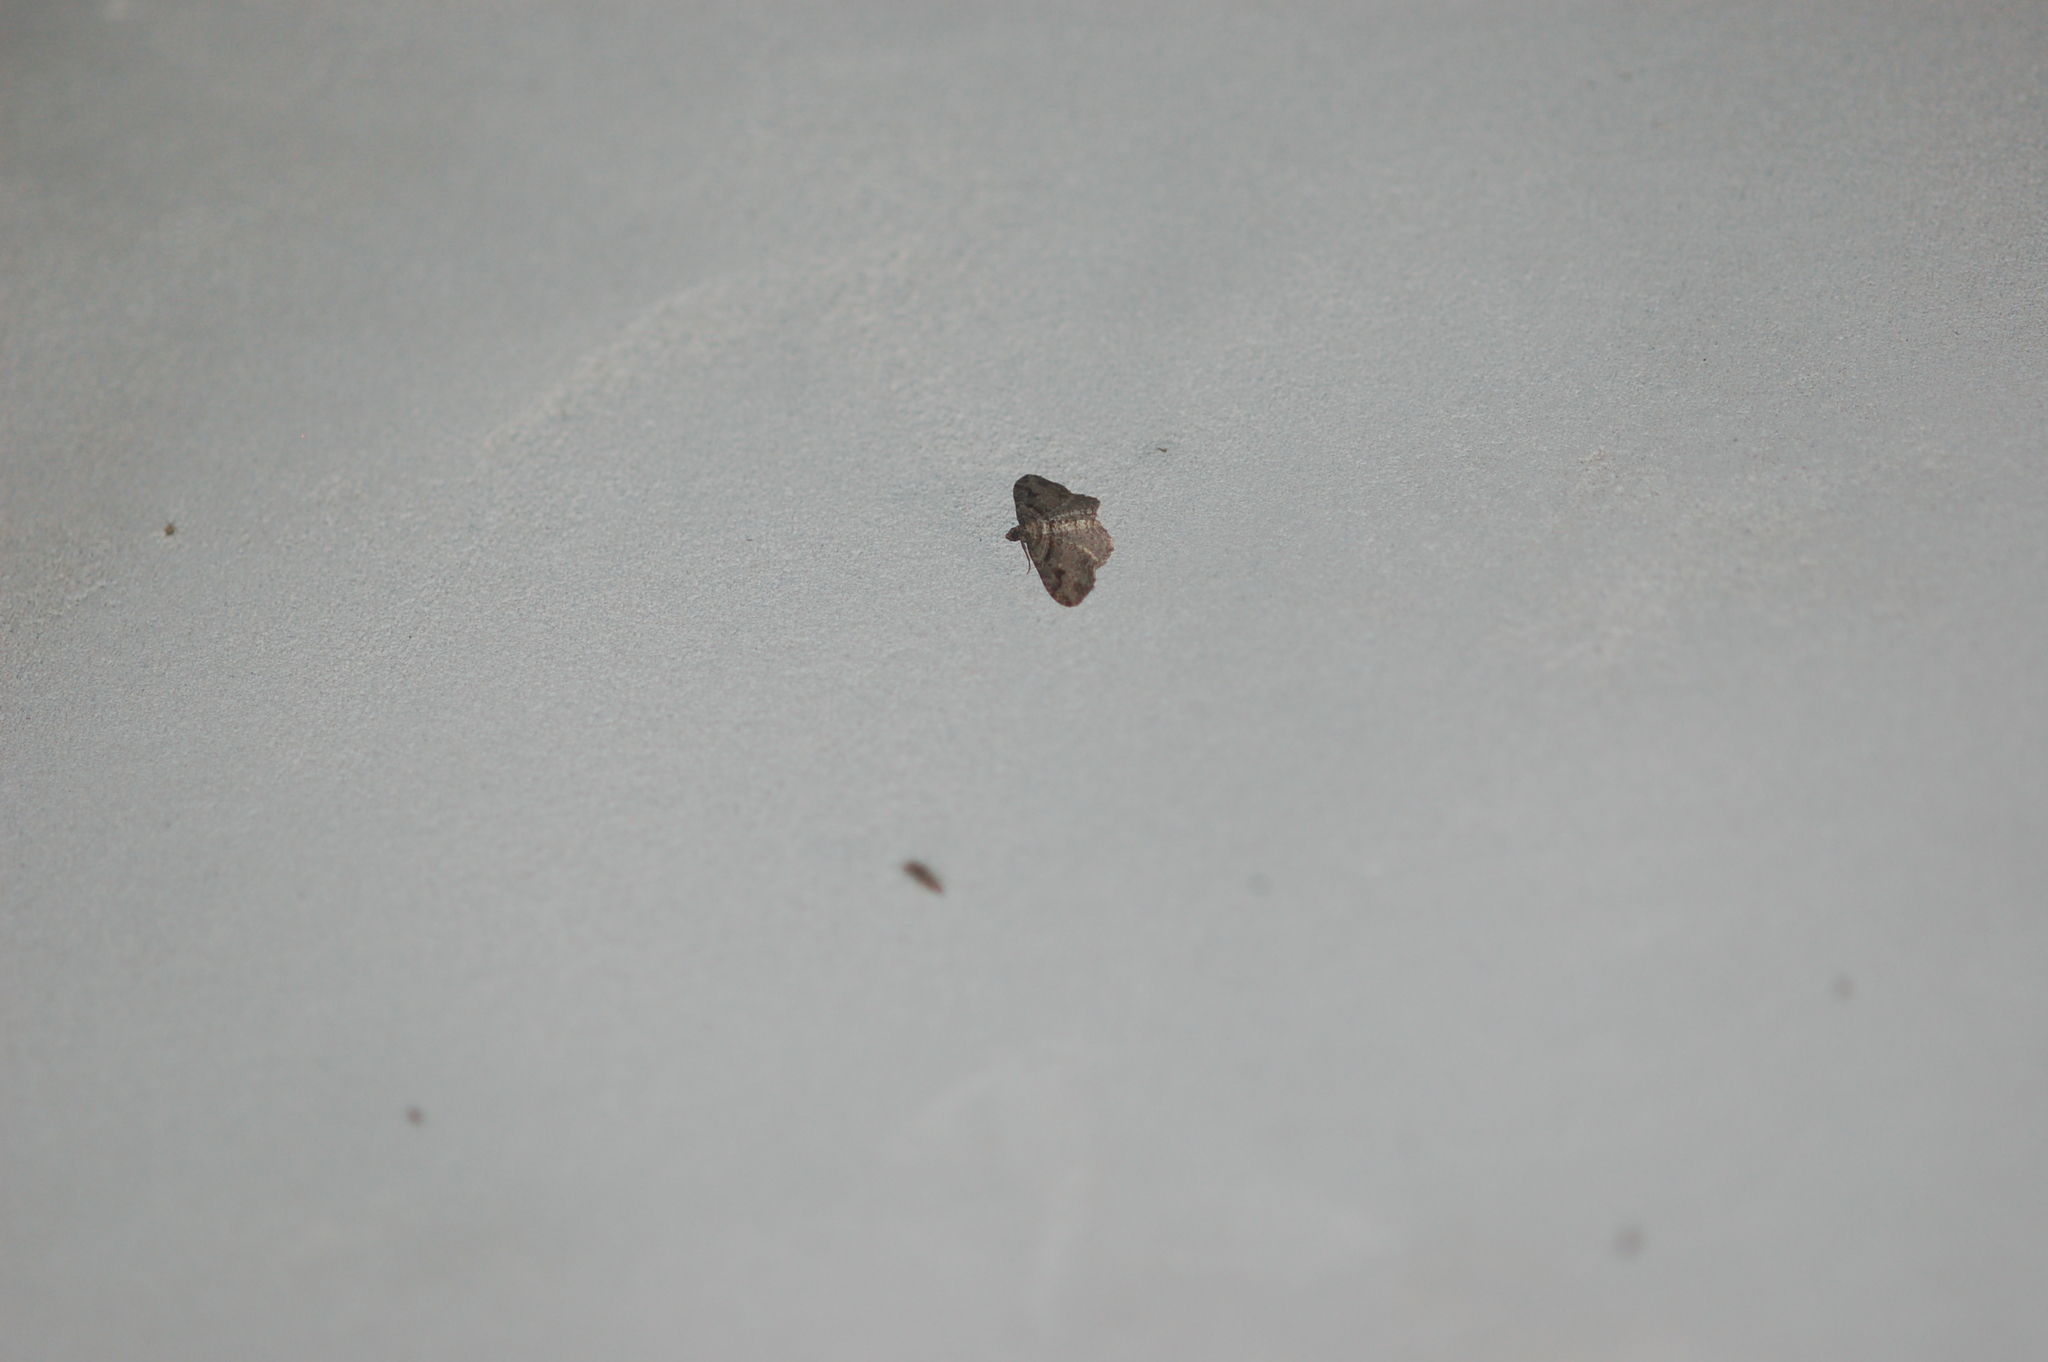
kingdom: Animalia
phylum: Arthropoda
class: Insecta
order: Lepidoptera
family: Geometridae
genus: Costaconvexa
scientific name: Costaconvexa centrostrigaria
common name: Bent-line carpet
